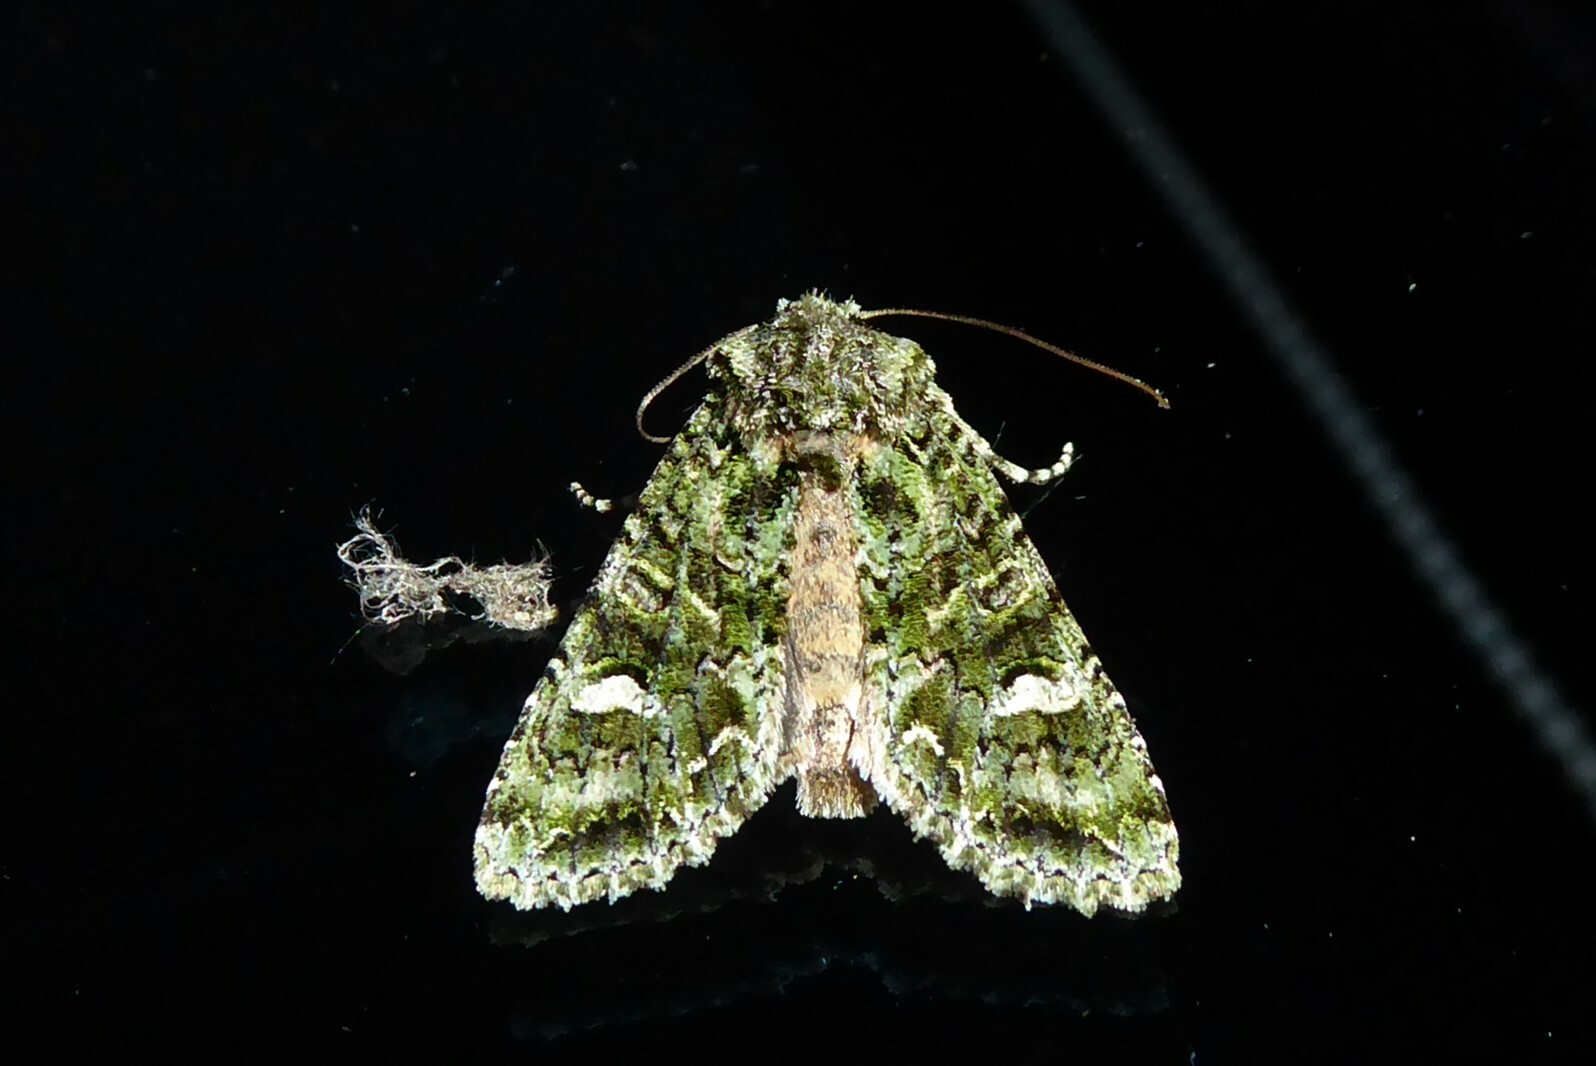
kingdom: Animalia
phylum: Arthropoda
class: Insecta
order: Lepidoptera
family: Noctuidae
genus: Ichneutica
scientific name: Ichneutica
